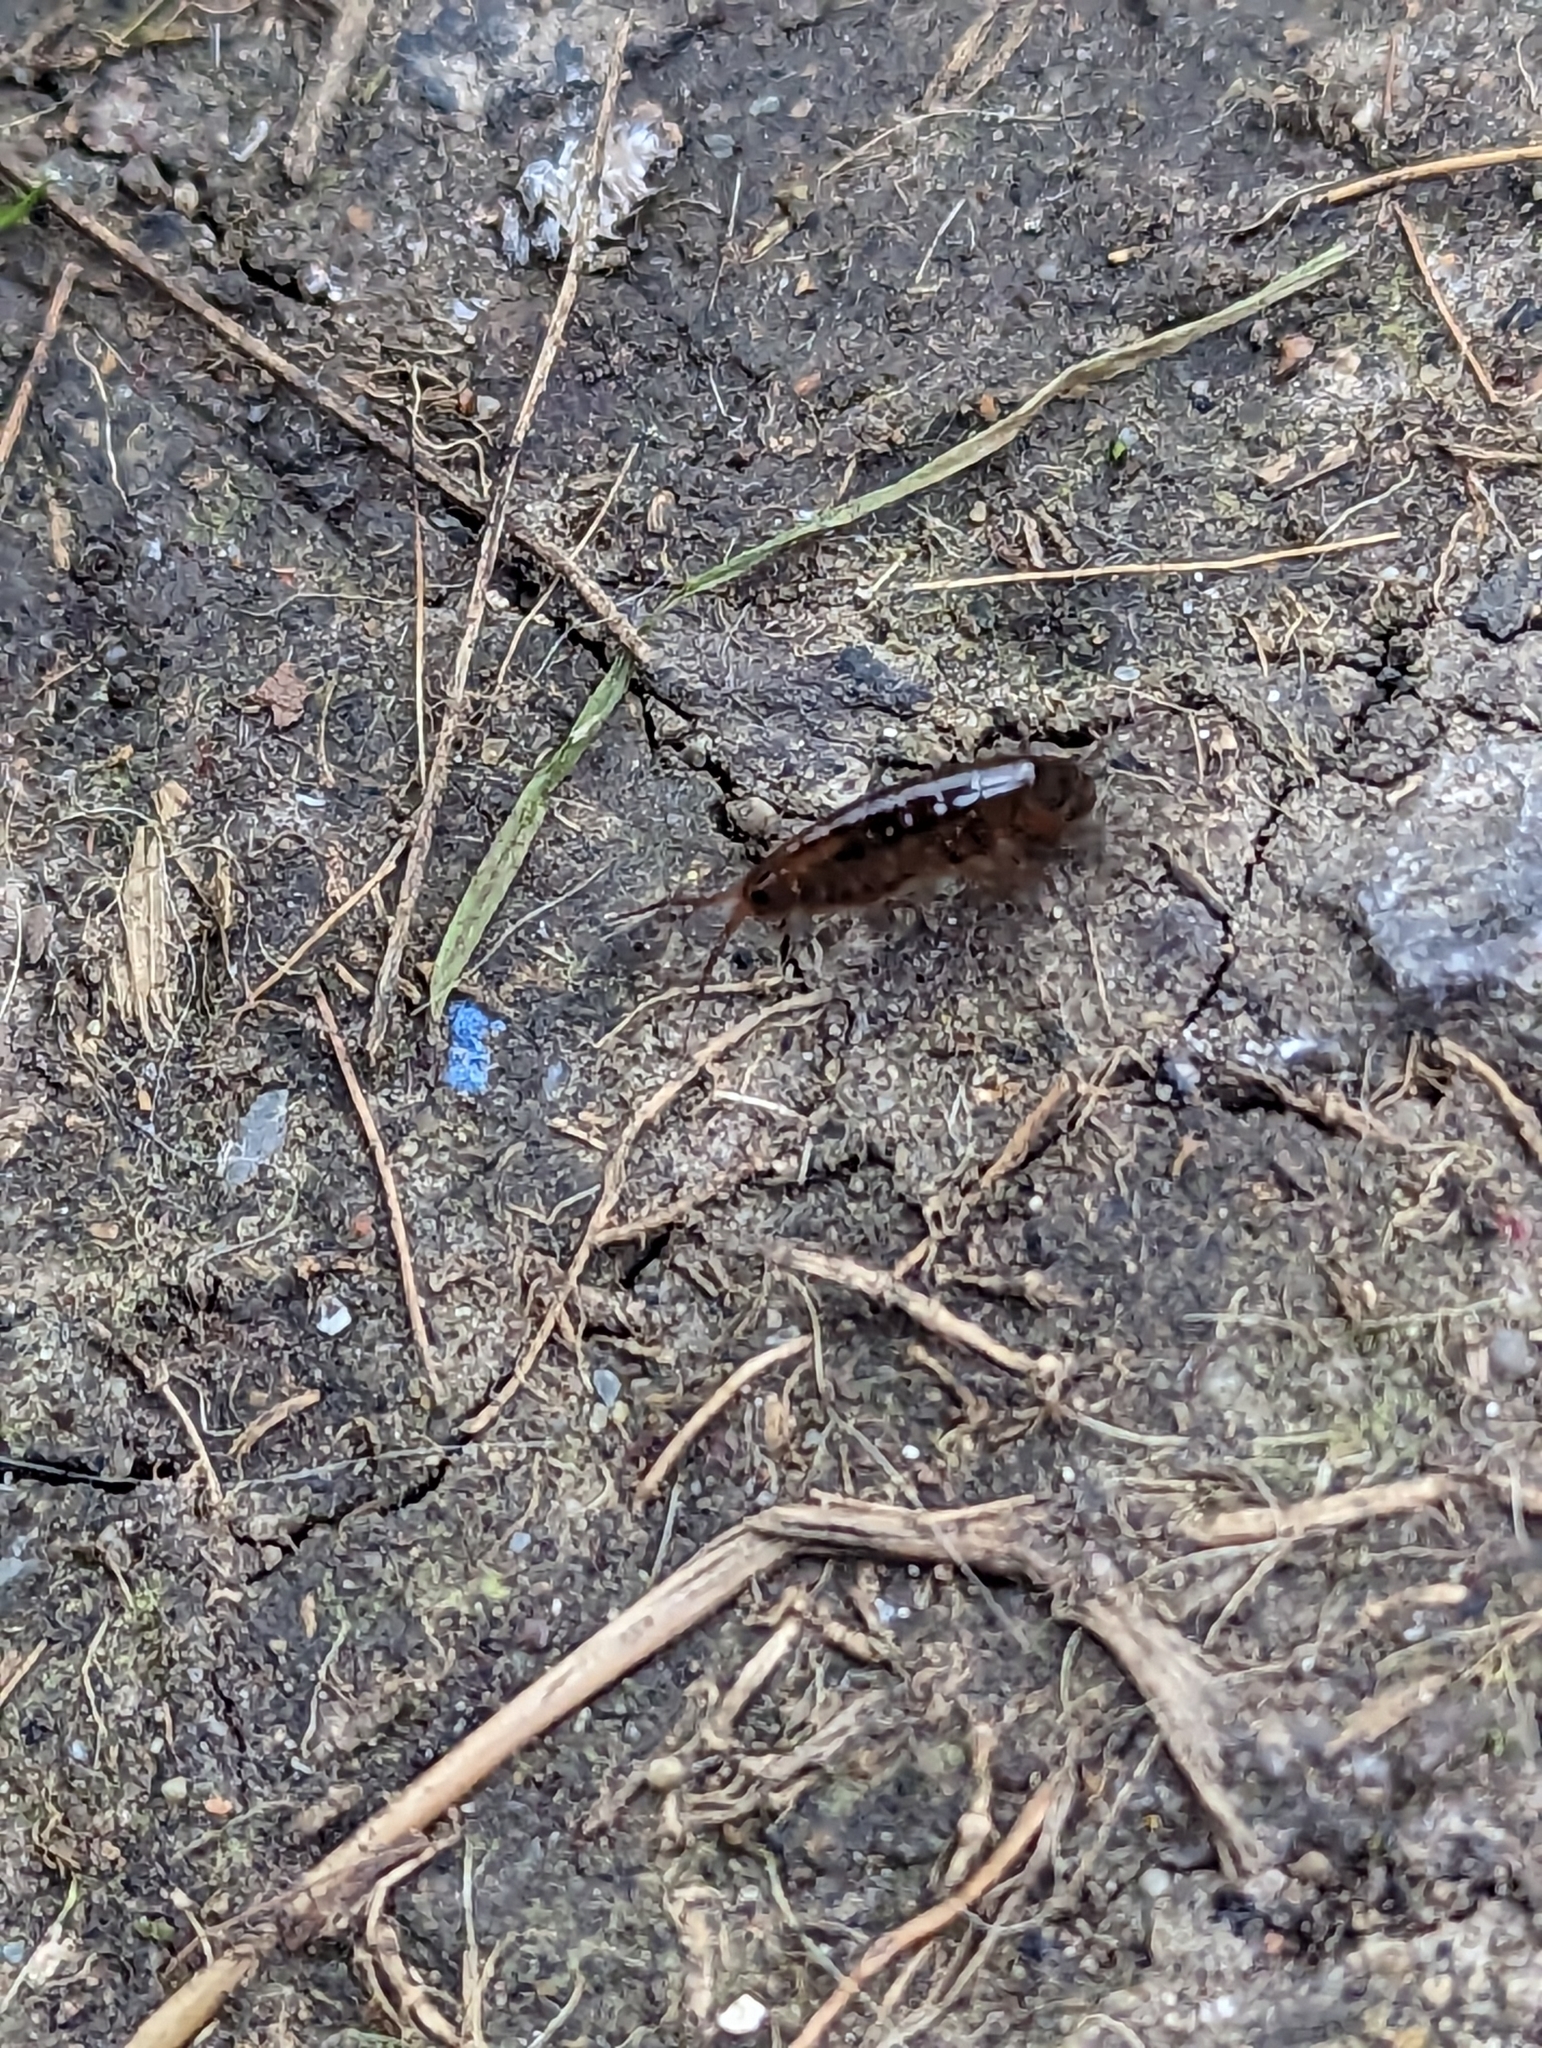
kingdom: Animalia
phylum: Arthropoda
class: Malacostraca
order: Amphipoda
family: Arcitalitridae
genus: Arcitalitrus
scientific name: Arcitalitrus dorrieni
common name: Landhopper
